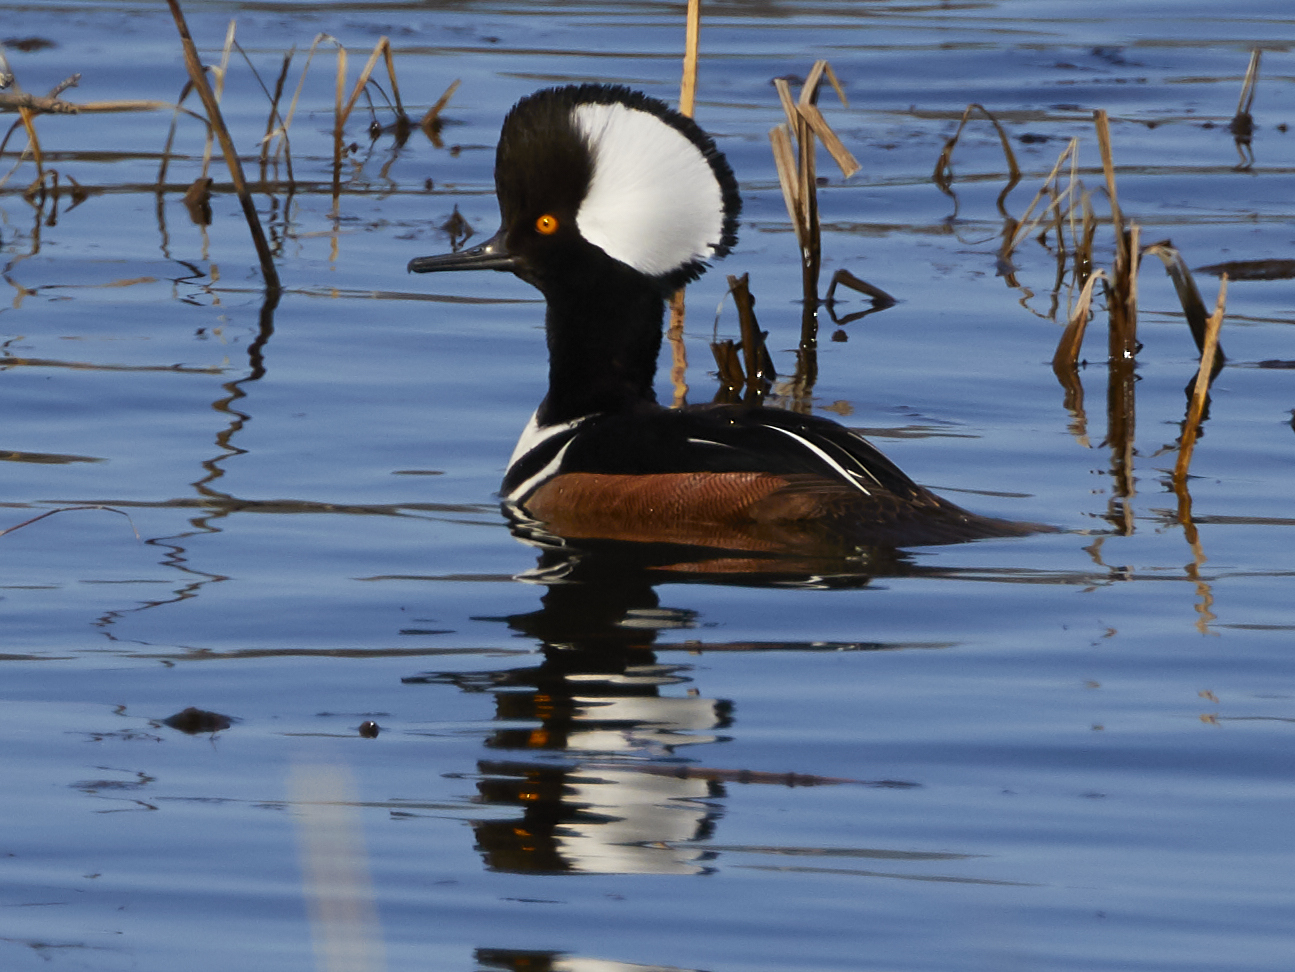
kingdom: Animalia
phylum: Chordata
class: Aves
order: Anseriformes
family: Anatidae
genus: Lophodytes
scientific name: Lophodytes cucullatus
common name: Hooded merganser
